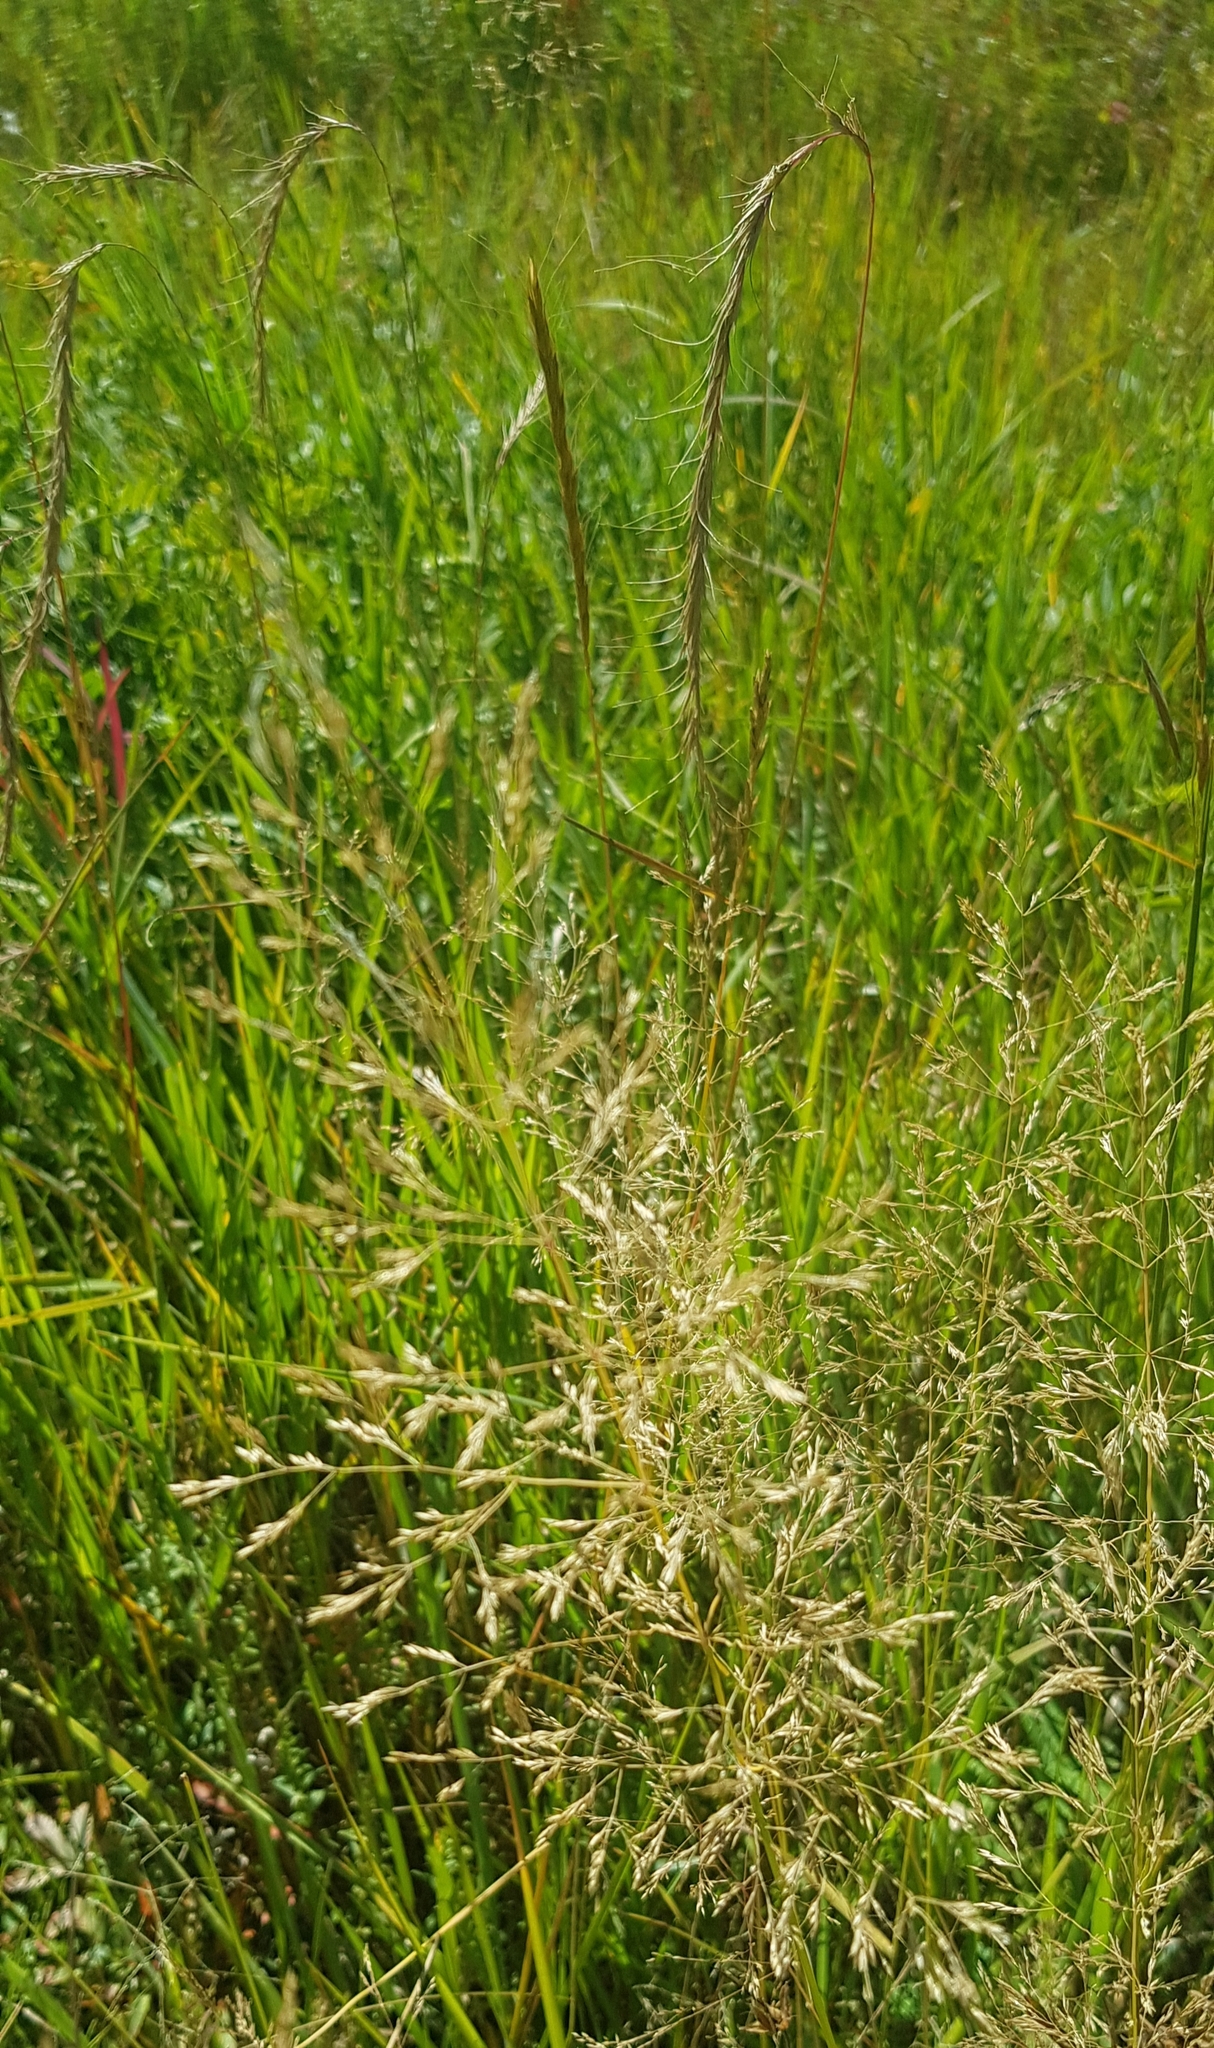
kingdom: Plantae
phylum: Tracheophyta
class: Liliopsida
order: Poales
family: Poaceae
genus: Agrostis
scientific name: Agrostis gigantea
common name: Black bent
